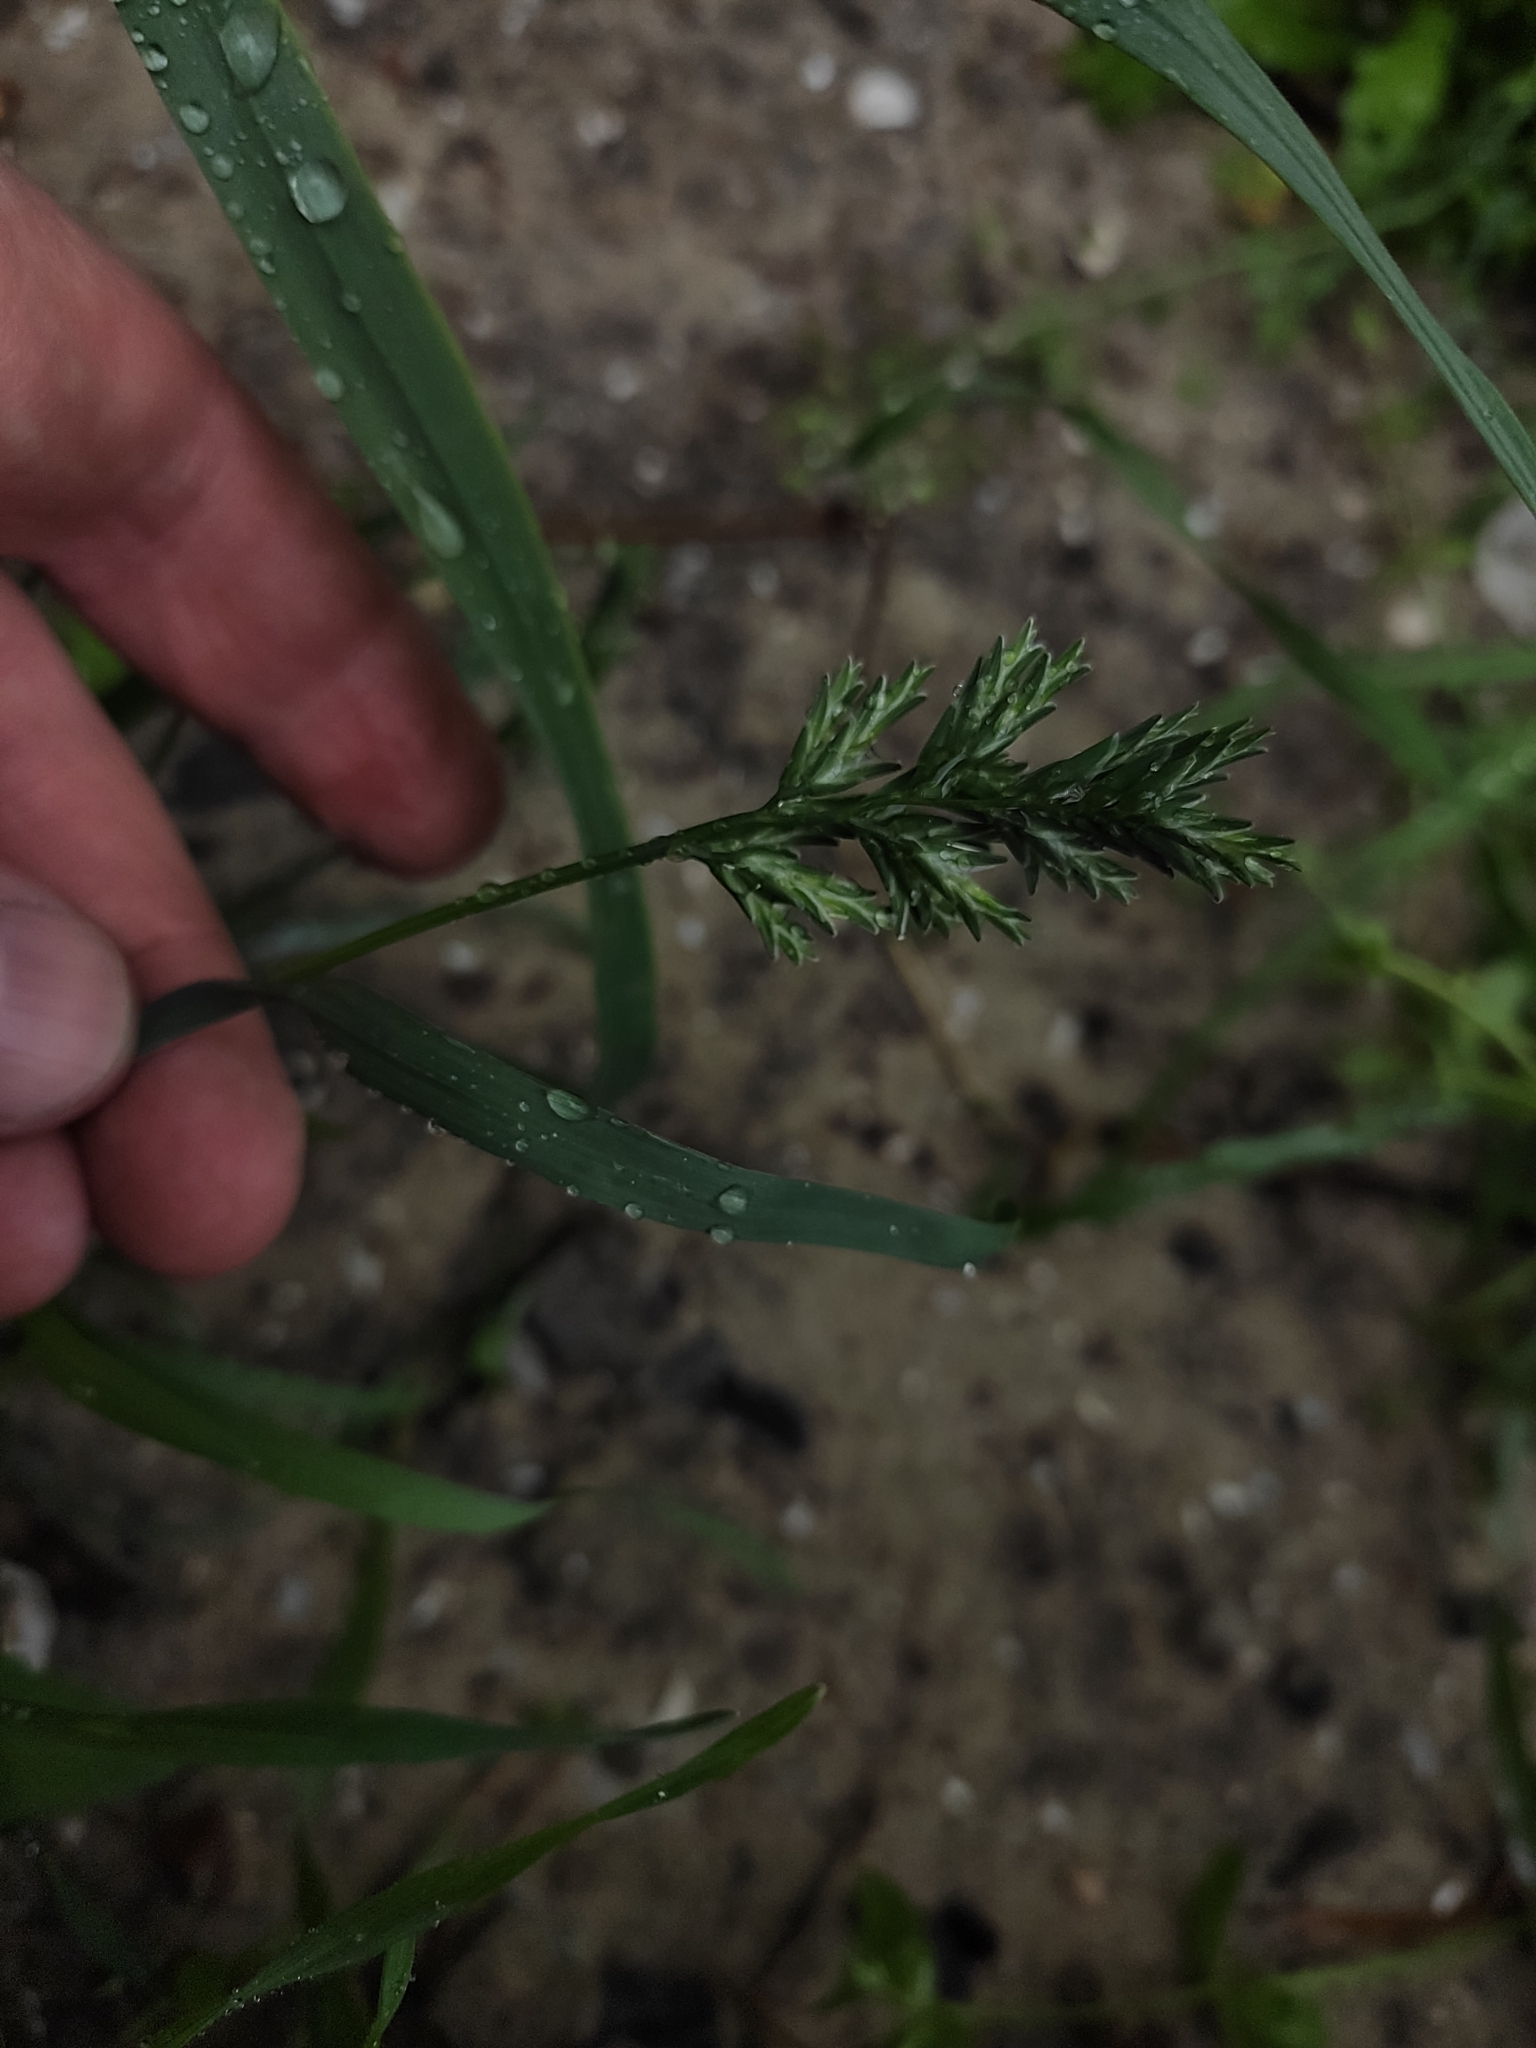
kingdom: Plantae
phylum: Tracheophyta
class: Liliopsida
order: Poales
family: Poaceae
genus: Sclerochloa
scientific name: Sclerochloa dura
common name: Common hardgrass
